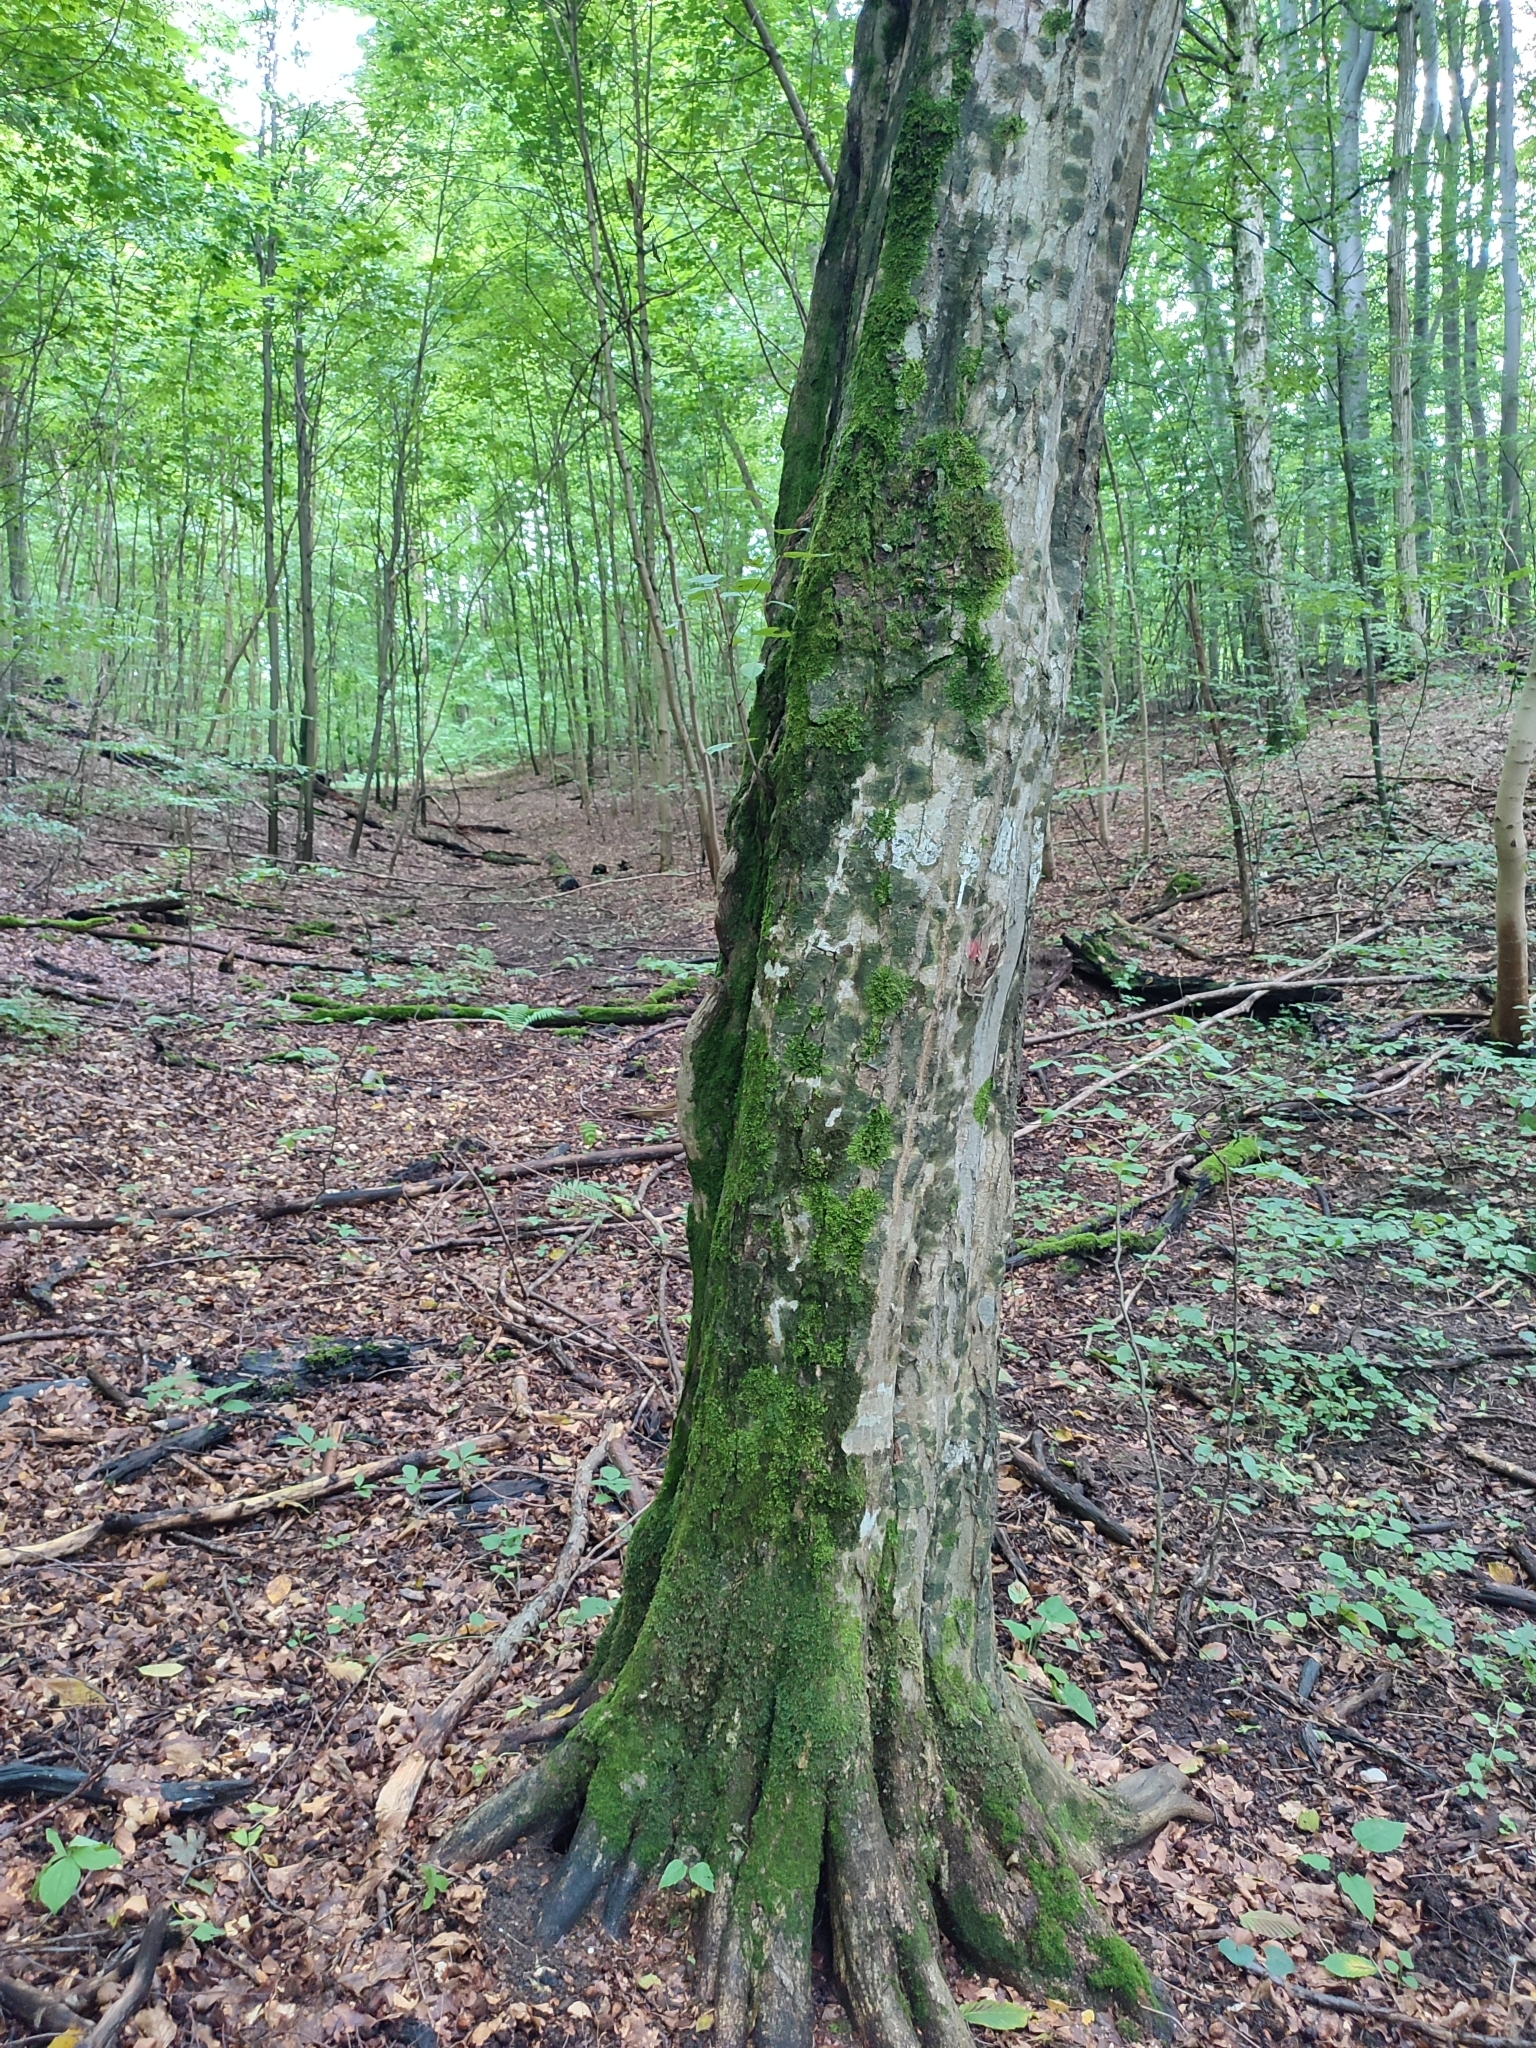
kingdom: Plantae
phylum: Tracheophyta
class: Magnoliopsida
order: Fagales
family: Betulaceae
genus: Carpinus
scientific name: Carpinus betulus
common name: Hornbeam
